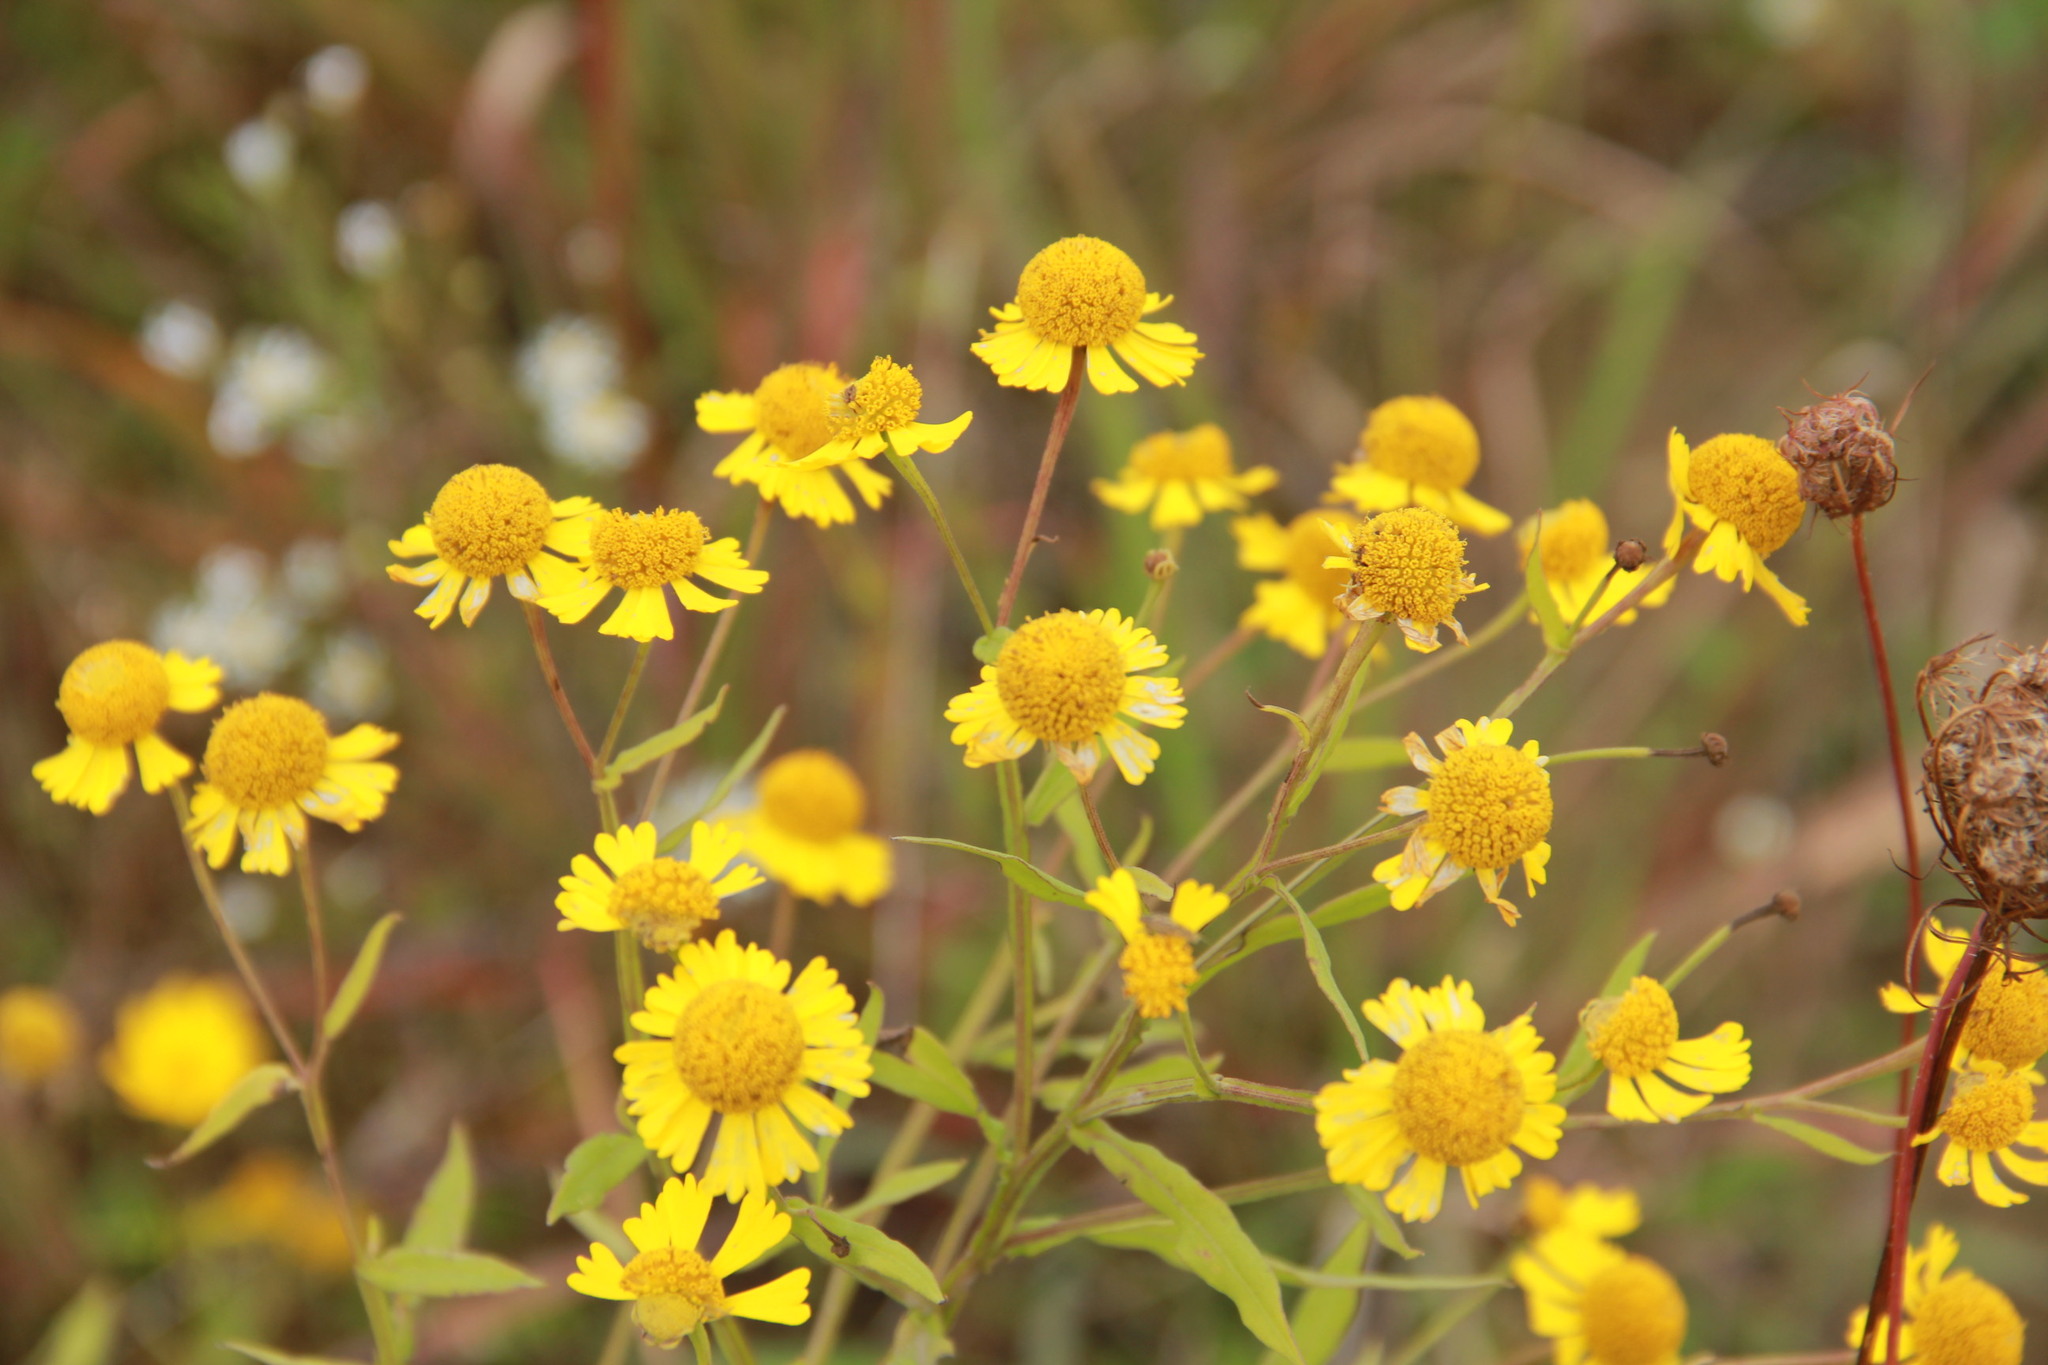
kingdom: Plantae
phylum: Tracheophyta
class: Magnoliopsida
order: Asterales
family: Asteraceae
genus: Helenium
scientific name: Helenium autumnale
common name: Sneezeweed
